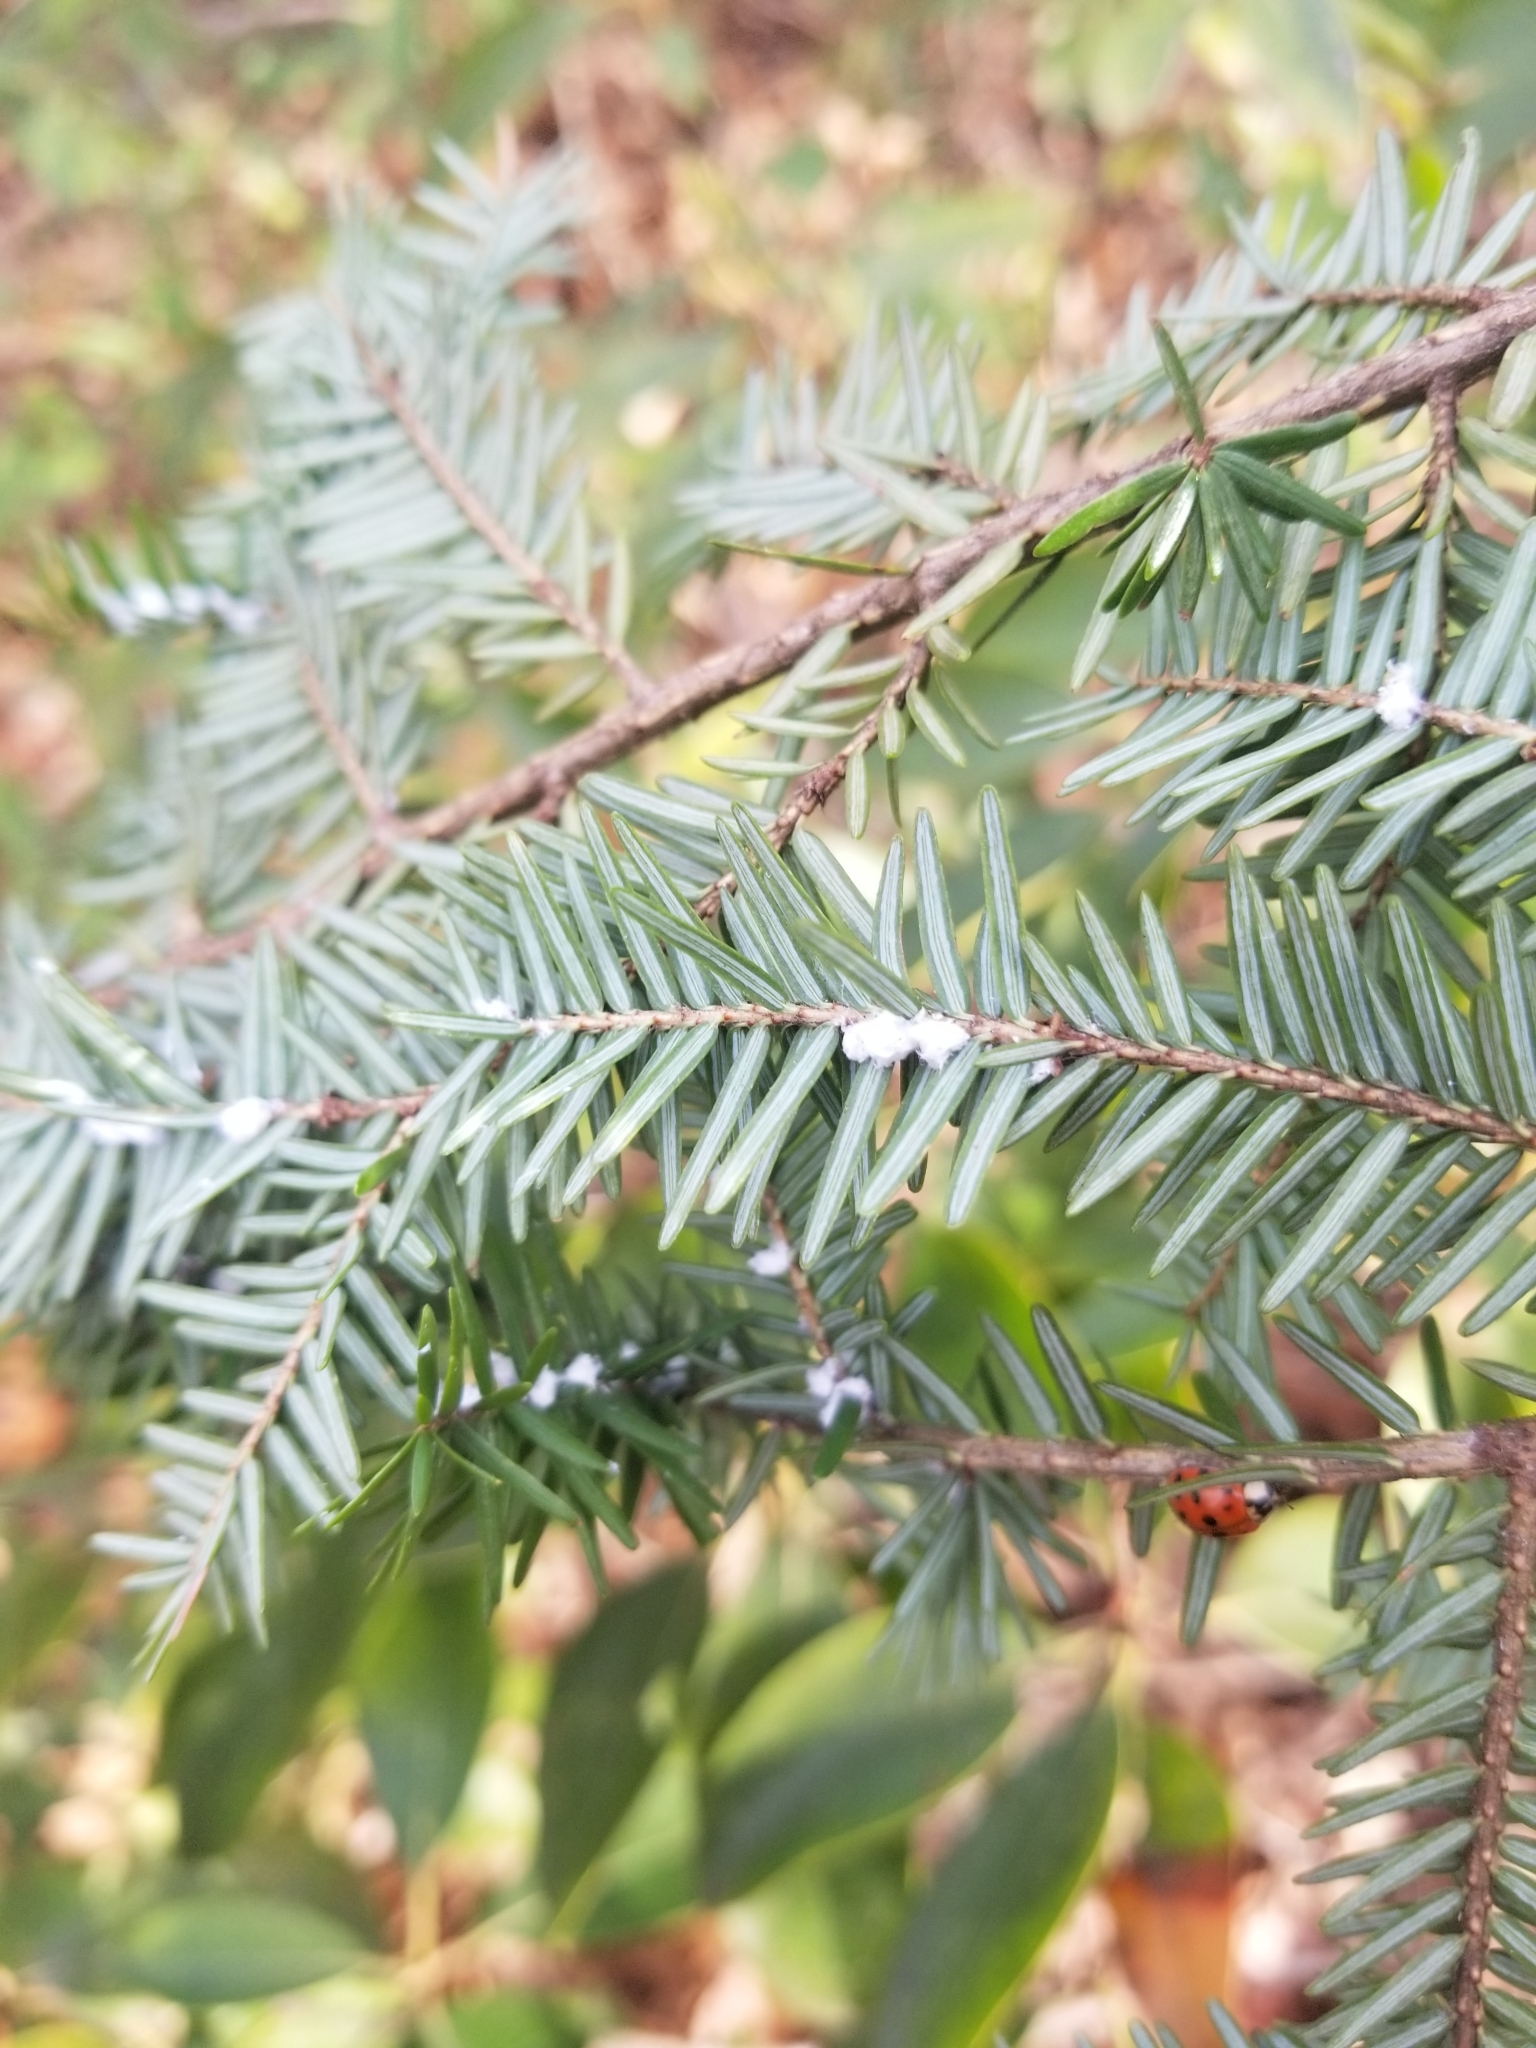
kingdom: Animalia
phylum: Arthropoda
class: Insecta
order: Hemiptera
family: Adelgidae
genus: Adelges
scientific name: Adelges tsugae
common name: Hemlock woolly adelgid
